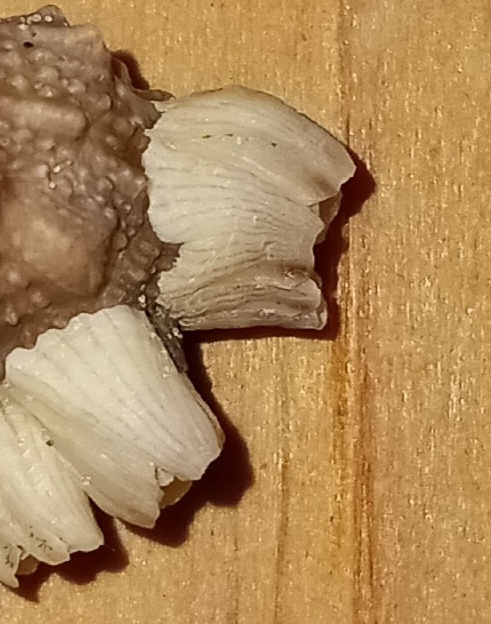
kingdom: Animalia
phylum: Arthropoda
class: Maxillopoda
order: Sessilia
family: Balanidae
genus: Amphibalanus
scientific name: Amphibalanus venustus
